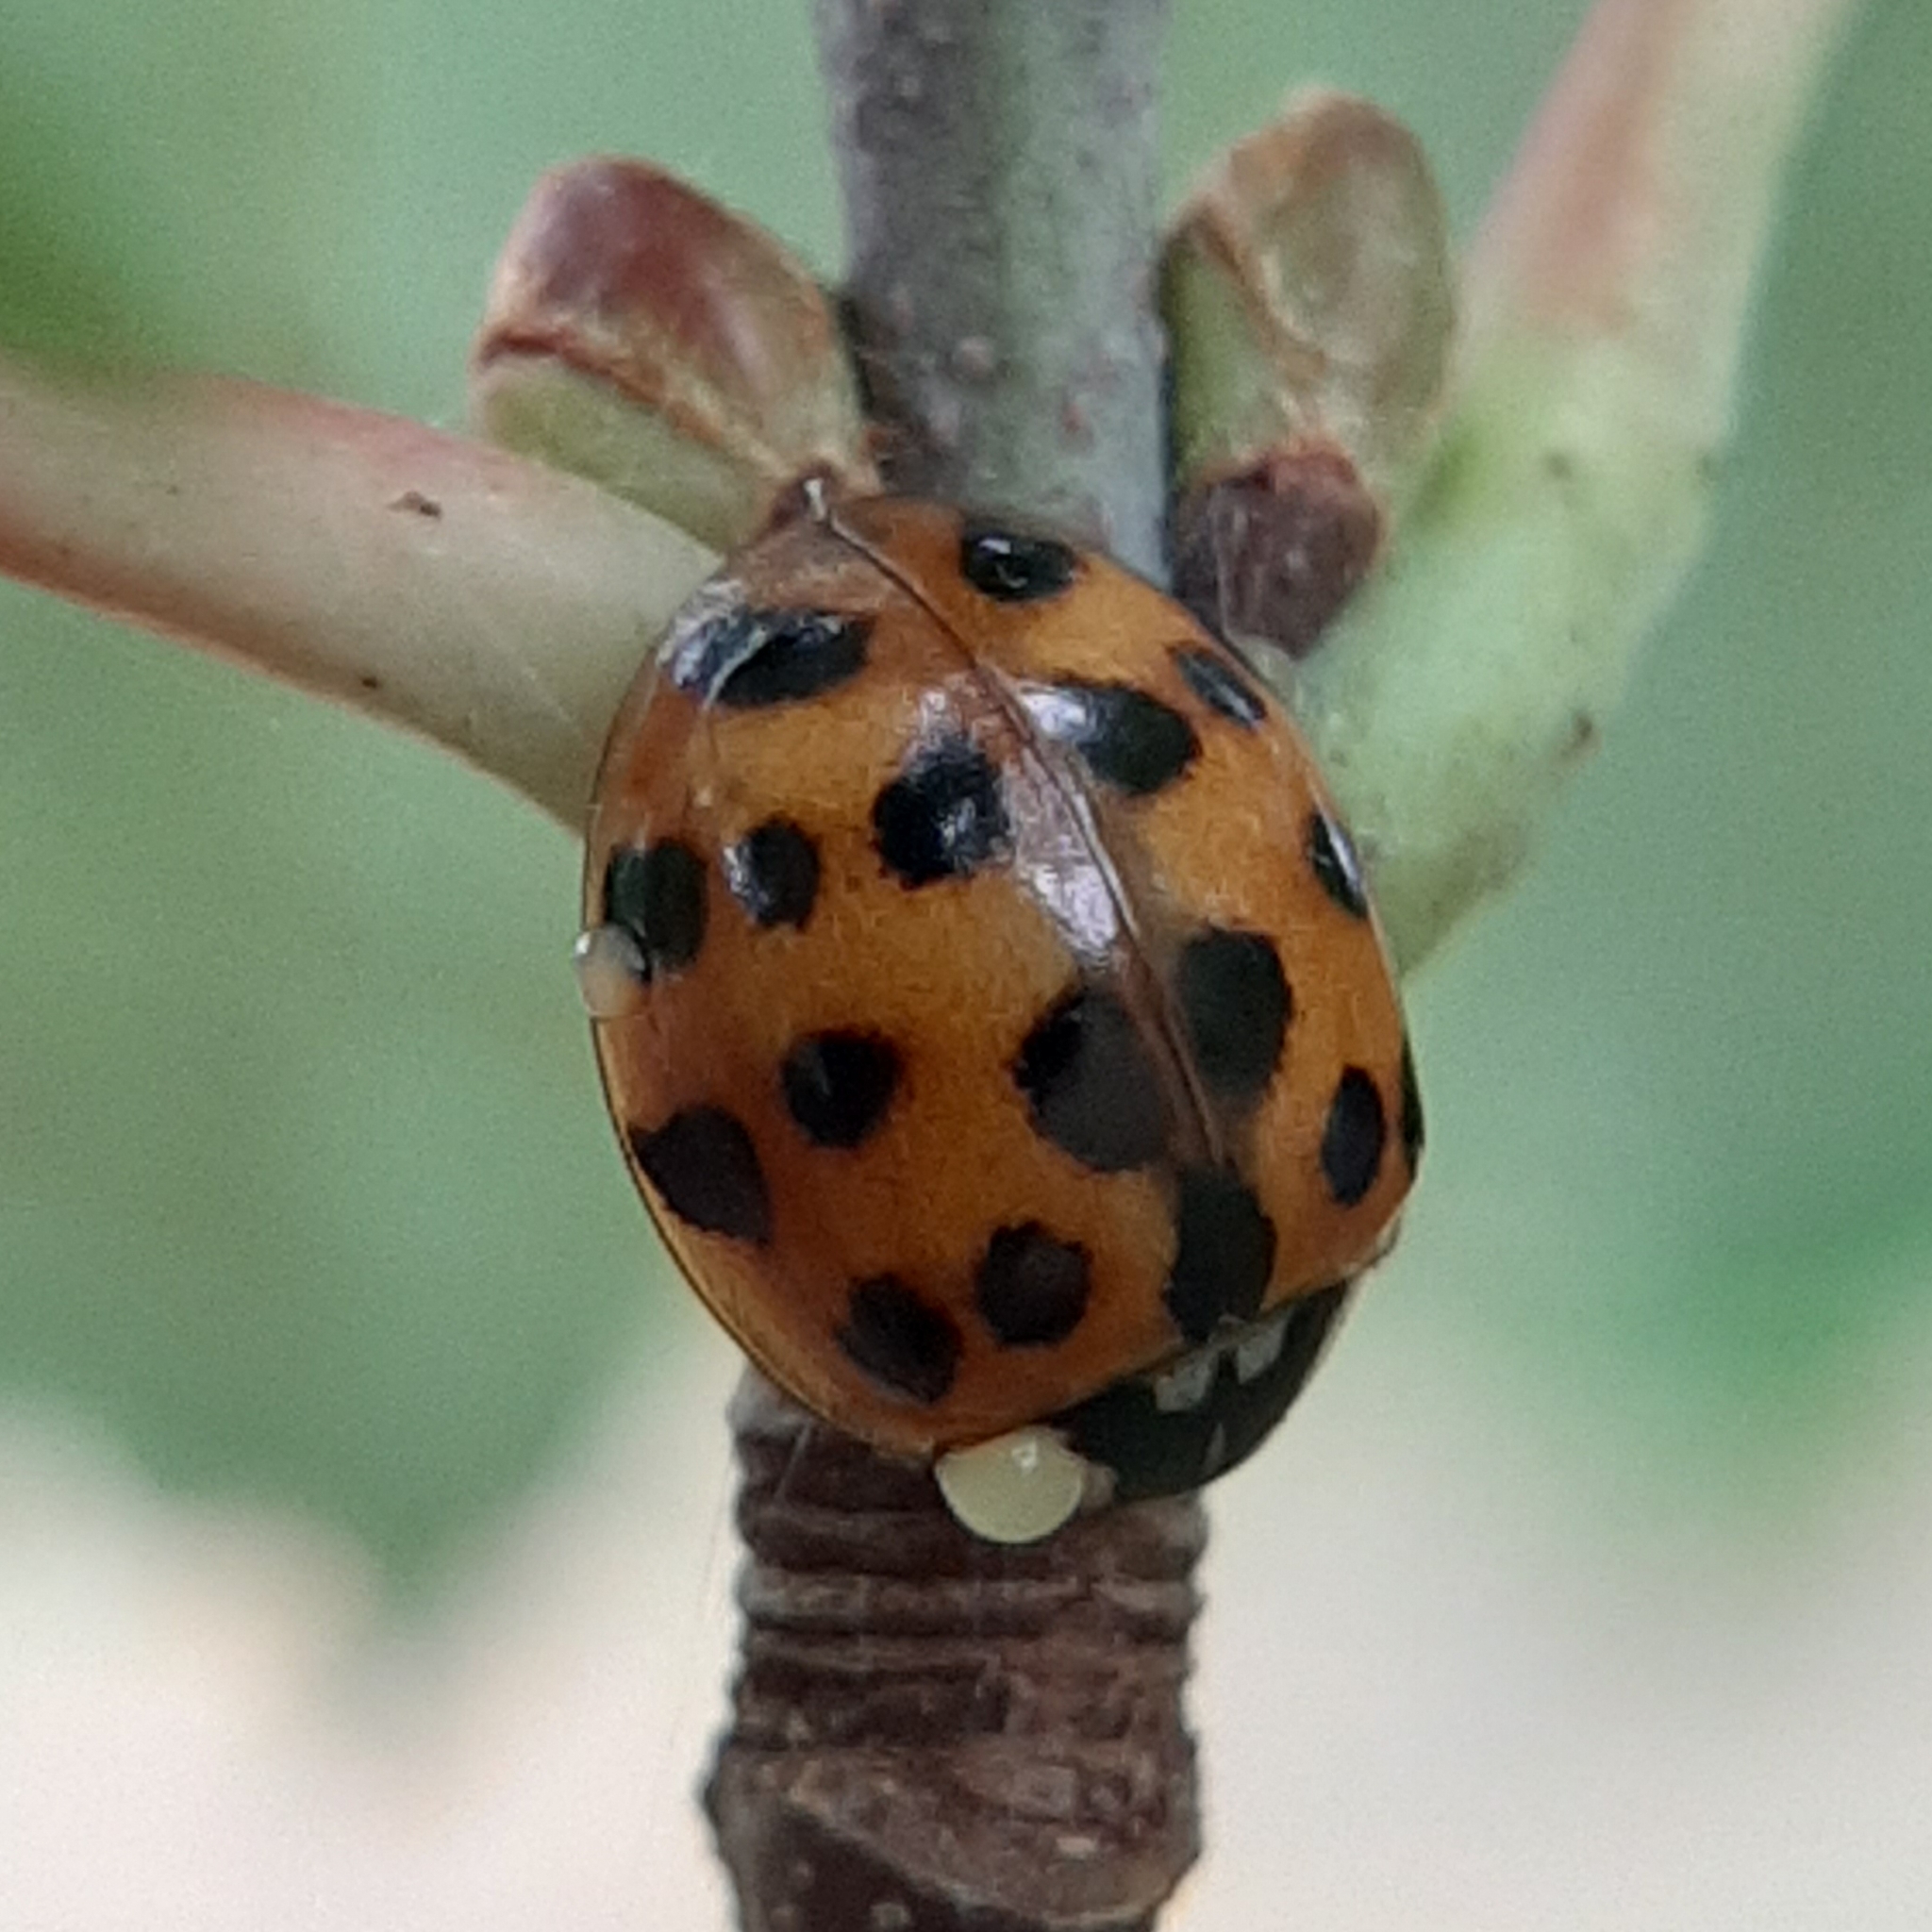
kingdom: Animalia
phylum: Arthropoda
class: Insecta
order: Coleoptera
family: Coccinellidae
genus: Harmonia
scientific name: Harmonia axyridis
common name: Harlequin ladybird
